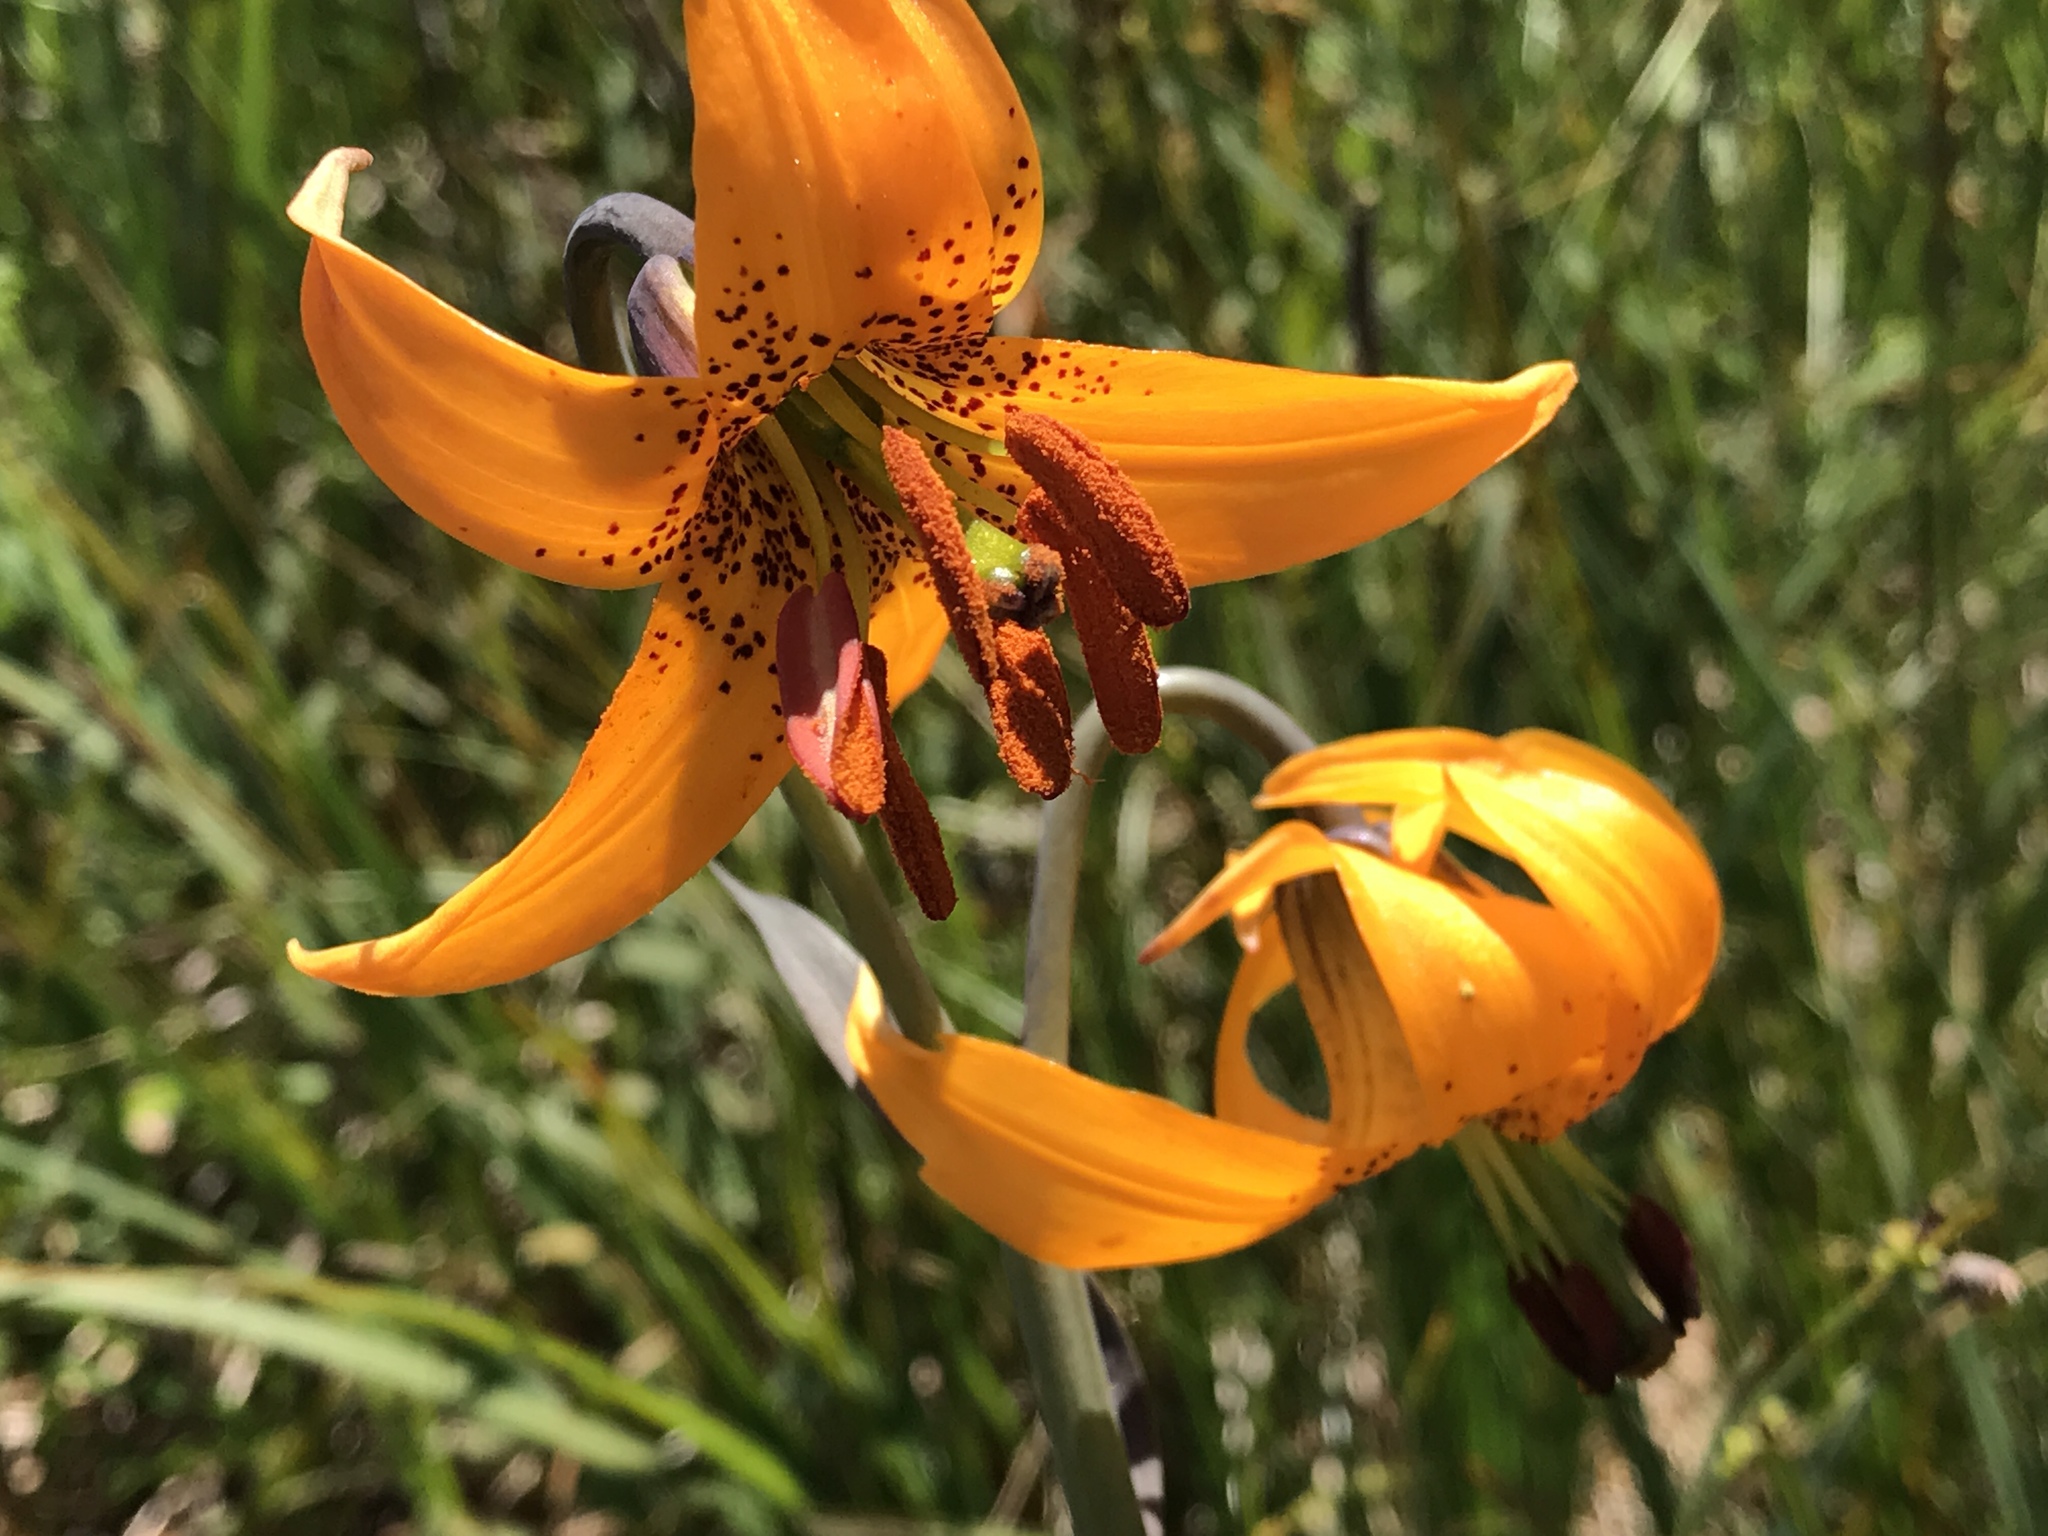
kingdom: Plantae
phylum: Tracheophyta
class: Liliopsida
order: Liliales
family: Liliaceae
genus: Lilium
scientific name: Lilium columbianum
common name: Columbia lily
